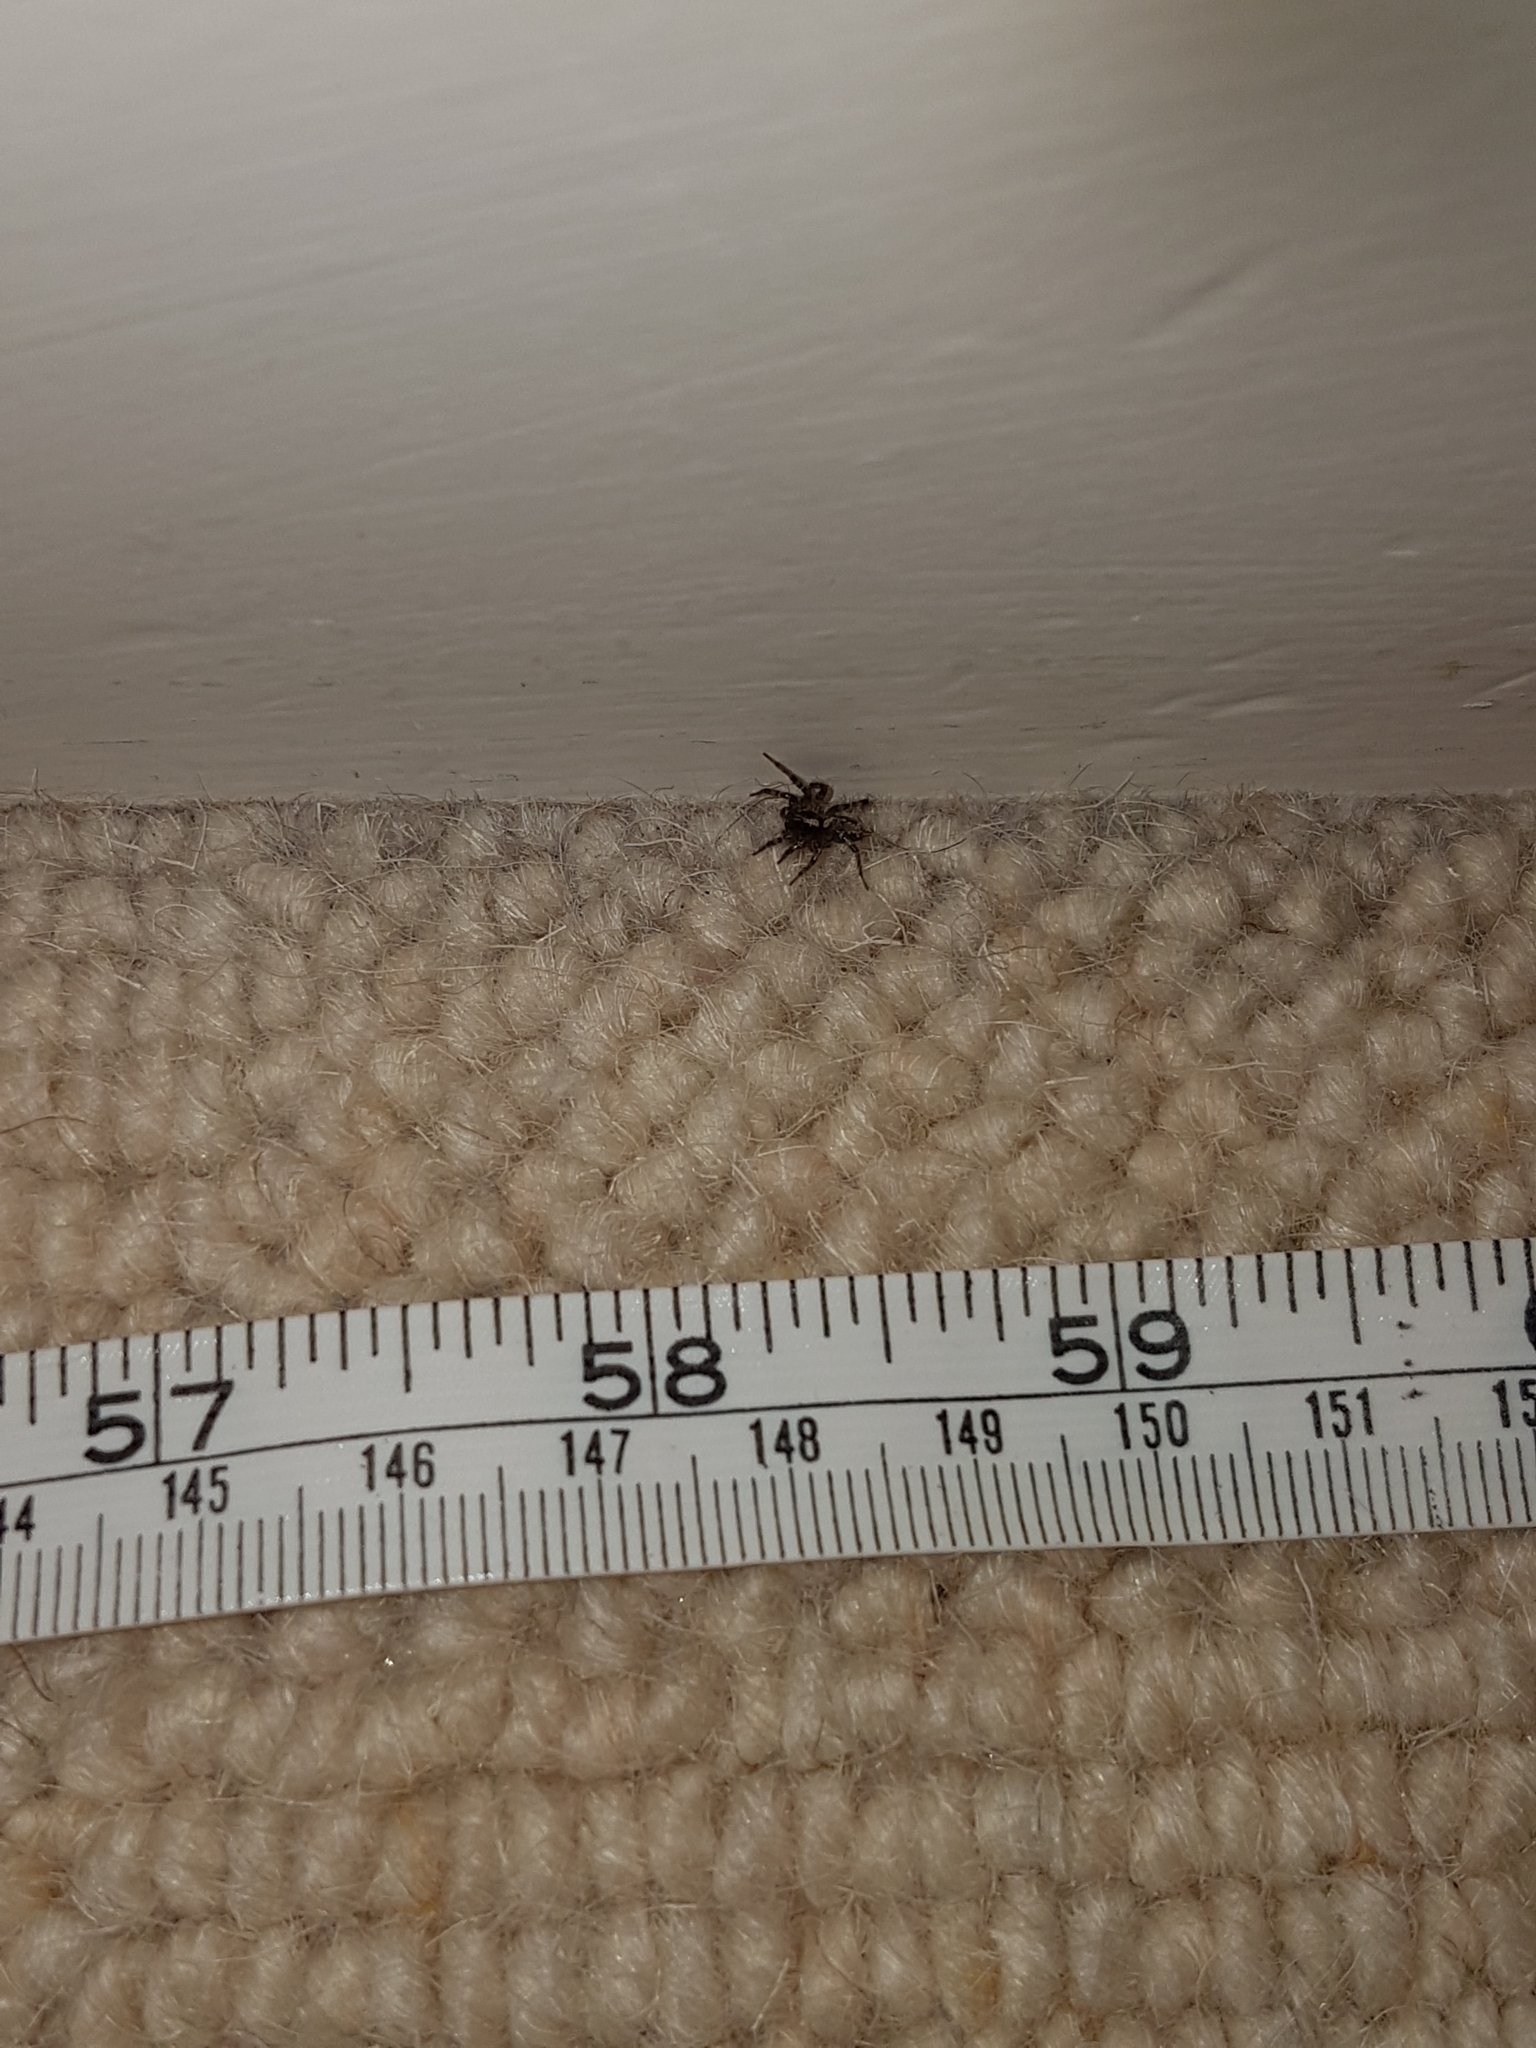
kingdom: Animalia
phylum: Arthropoda
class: Arachnida
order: Araneae
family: Agelenidae
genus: Textrix
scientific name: Textrix denticulata
